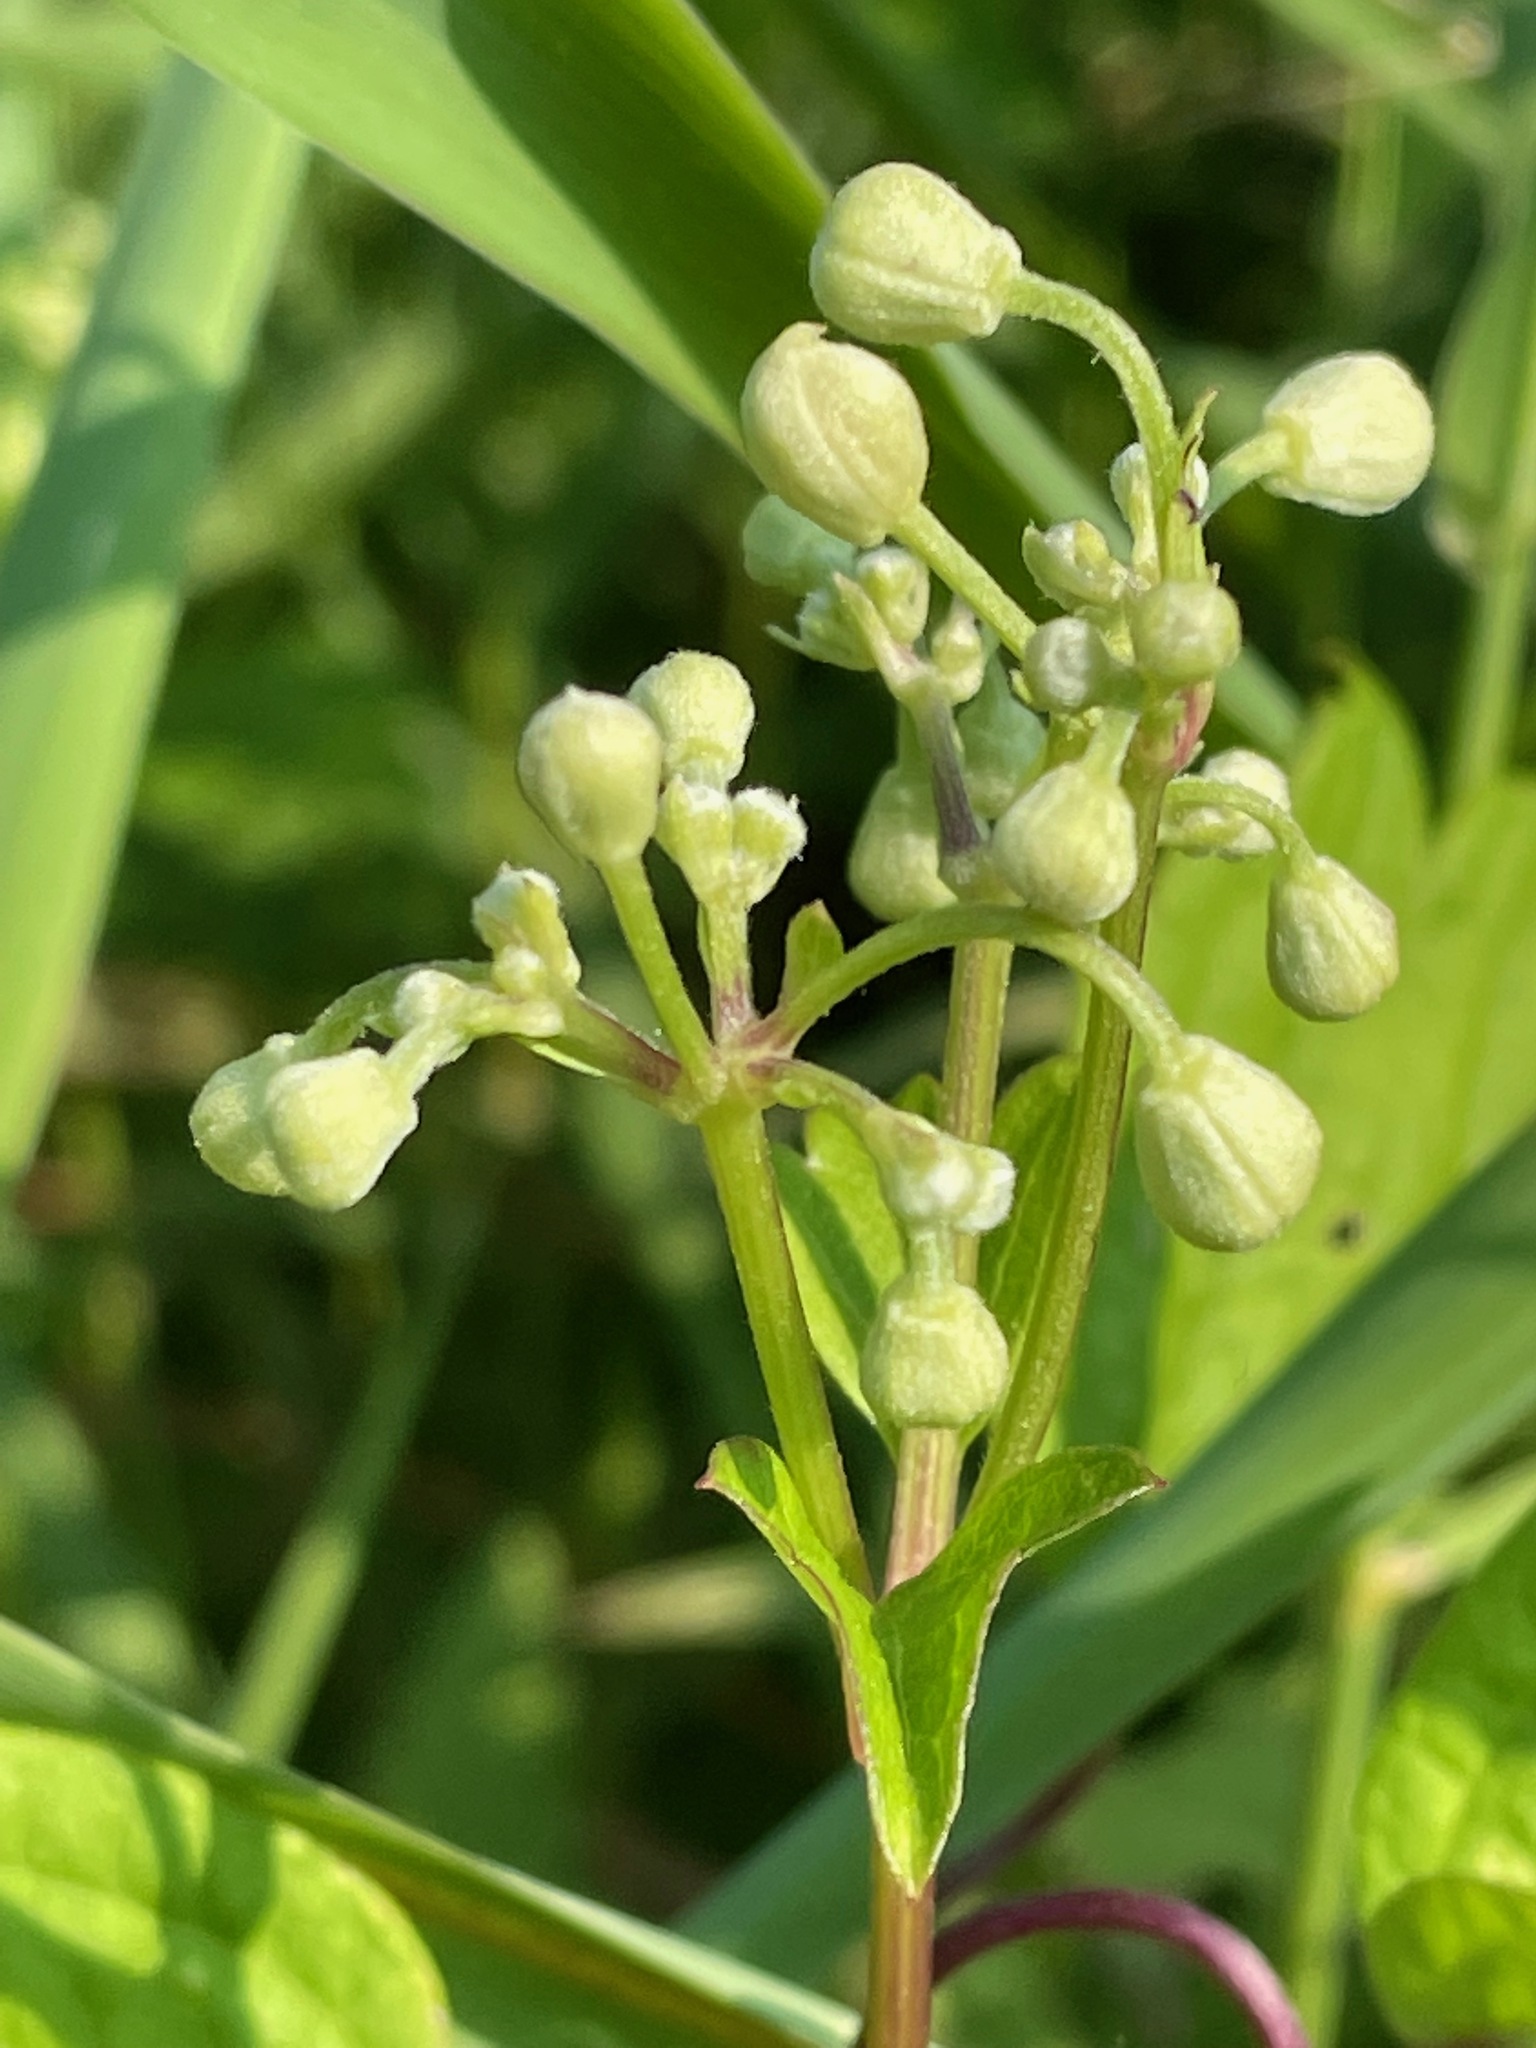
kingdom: Plantae
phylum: Tracheophyta
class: Magnoliopsida
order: Ranunculales
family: Ranunculaceae
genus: Clematis
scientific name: Clematis virginiana
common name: Virgin's-bower
